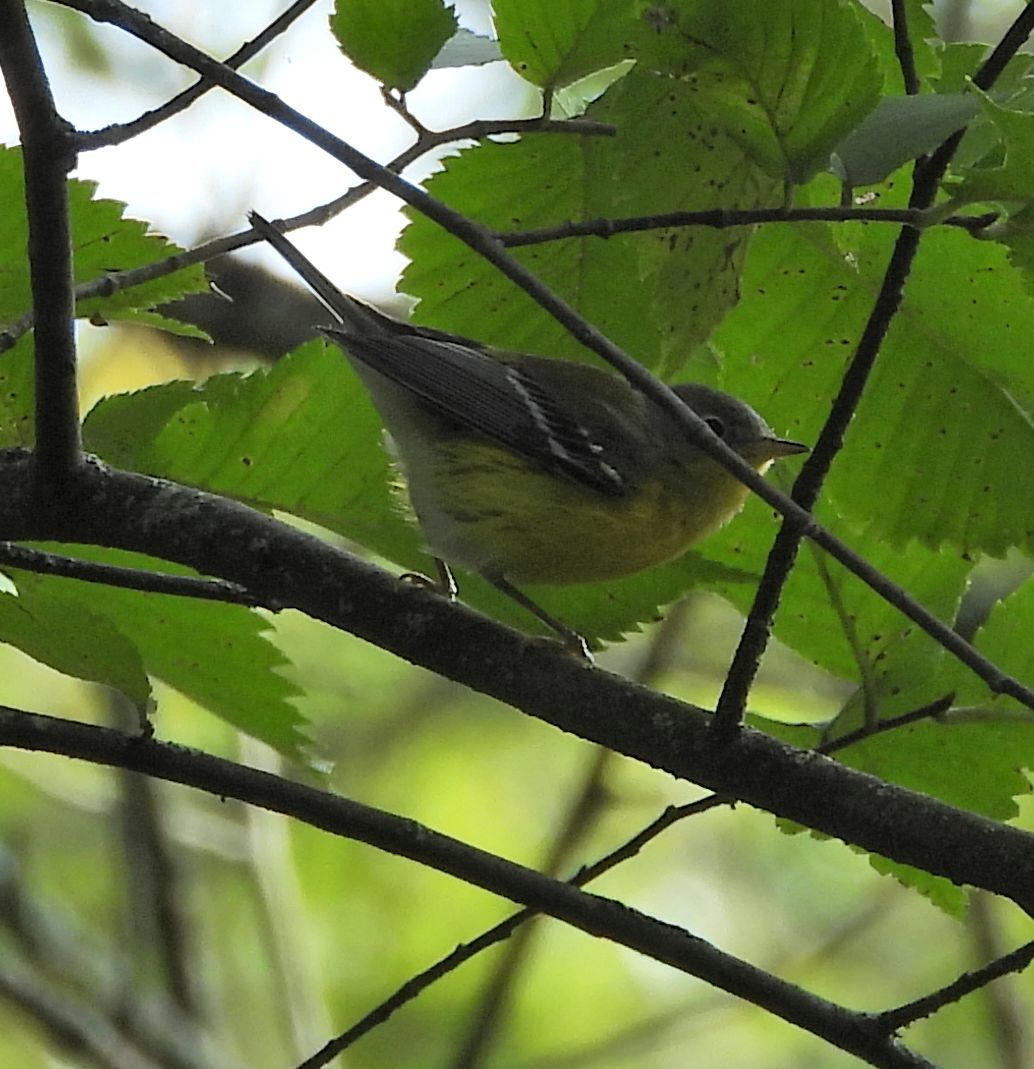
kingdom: Animalia
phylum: Chordata
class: Aves
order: Passeriformes
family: Parulidae
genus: Setophaga
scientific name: Setophaga magnolia
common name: Magnolia warbler
